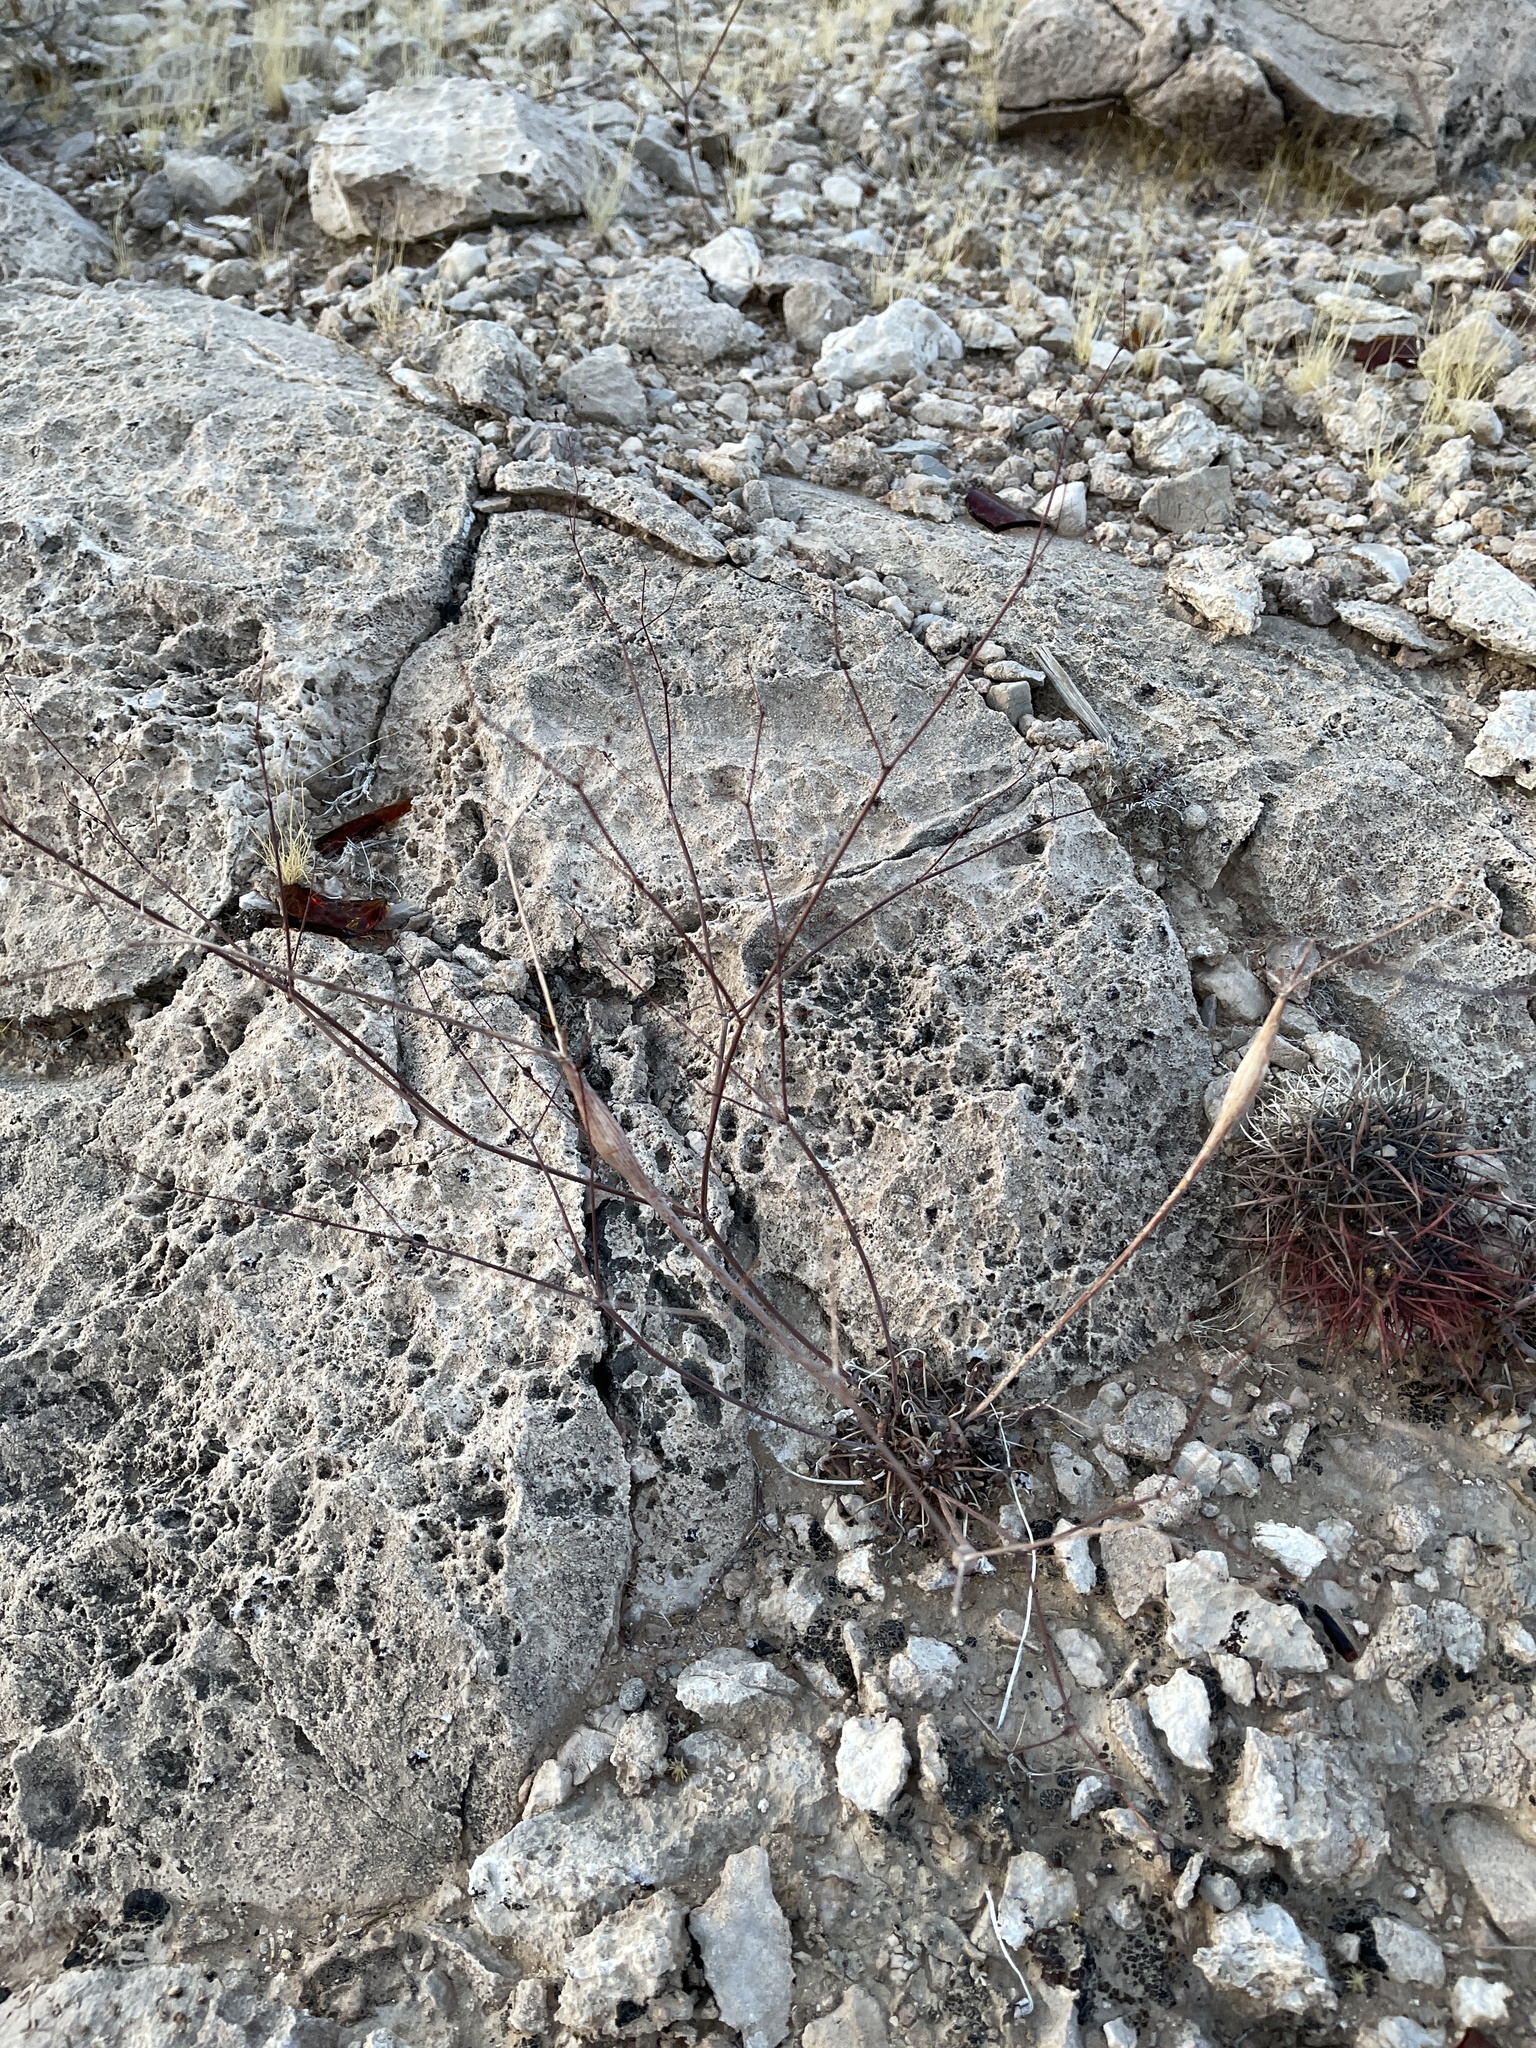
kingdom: Plantae
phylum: Tracheophyta
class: Magnoliopsida
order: Caryophyllales
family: Polygonaceae
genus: Eriogonum
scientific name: Eriogonum inflatum
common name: Desert trumpet
